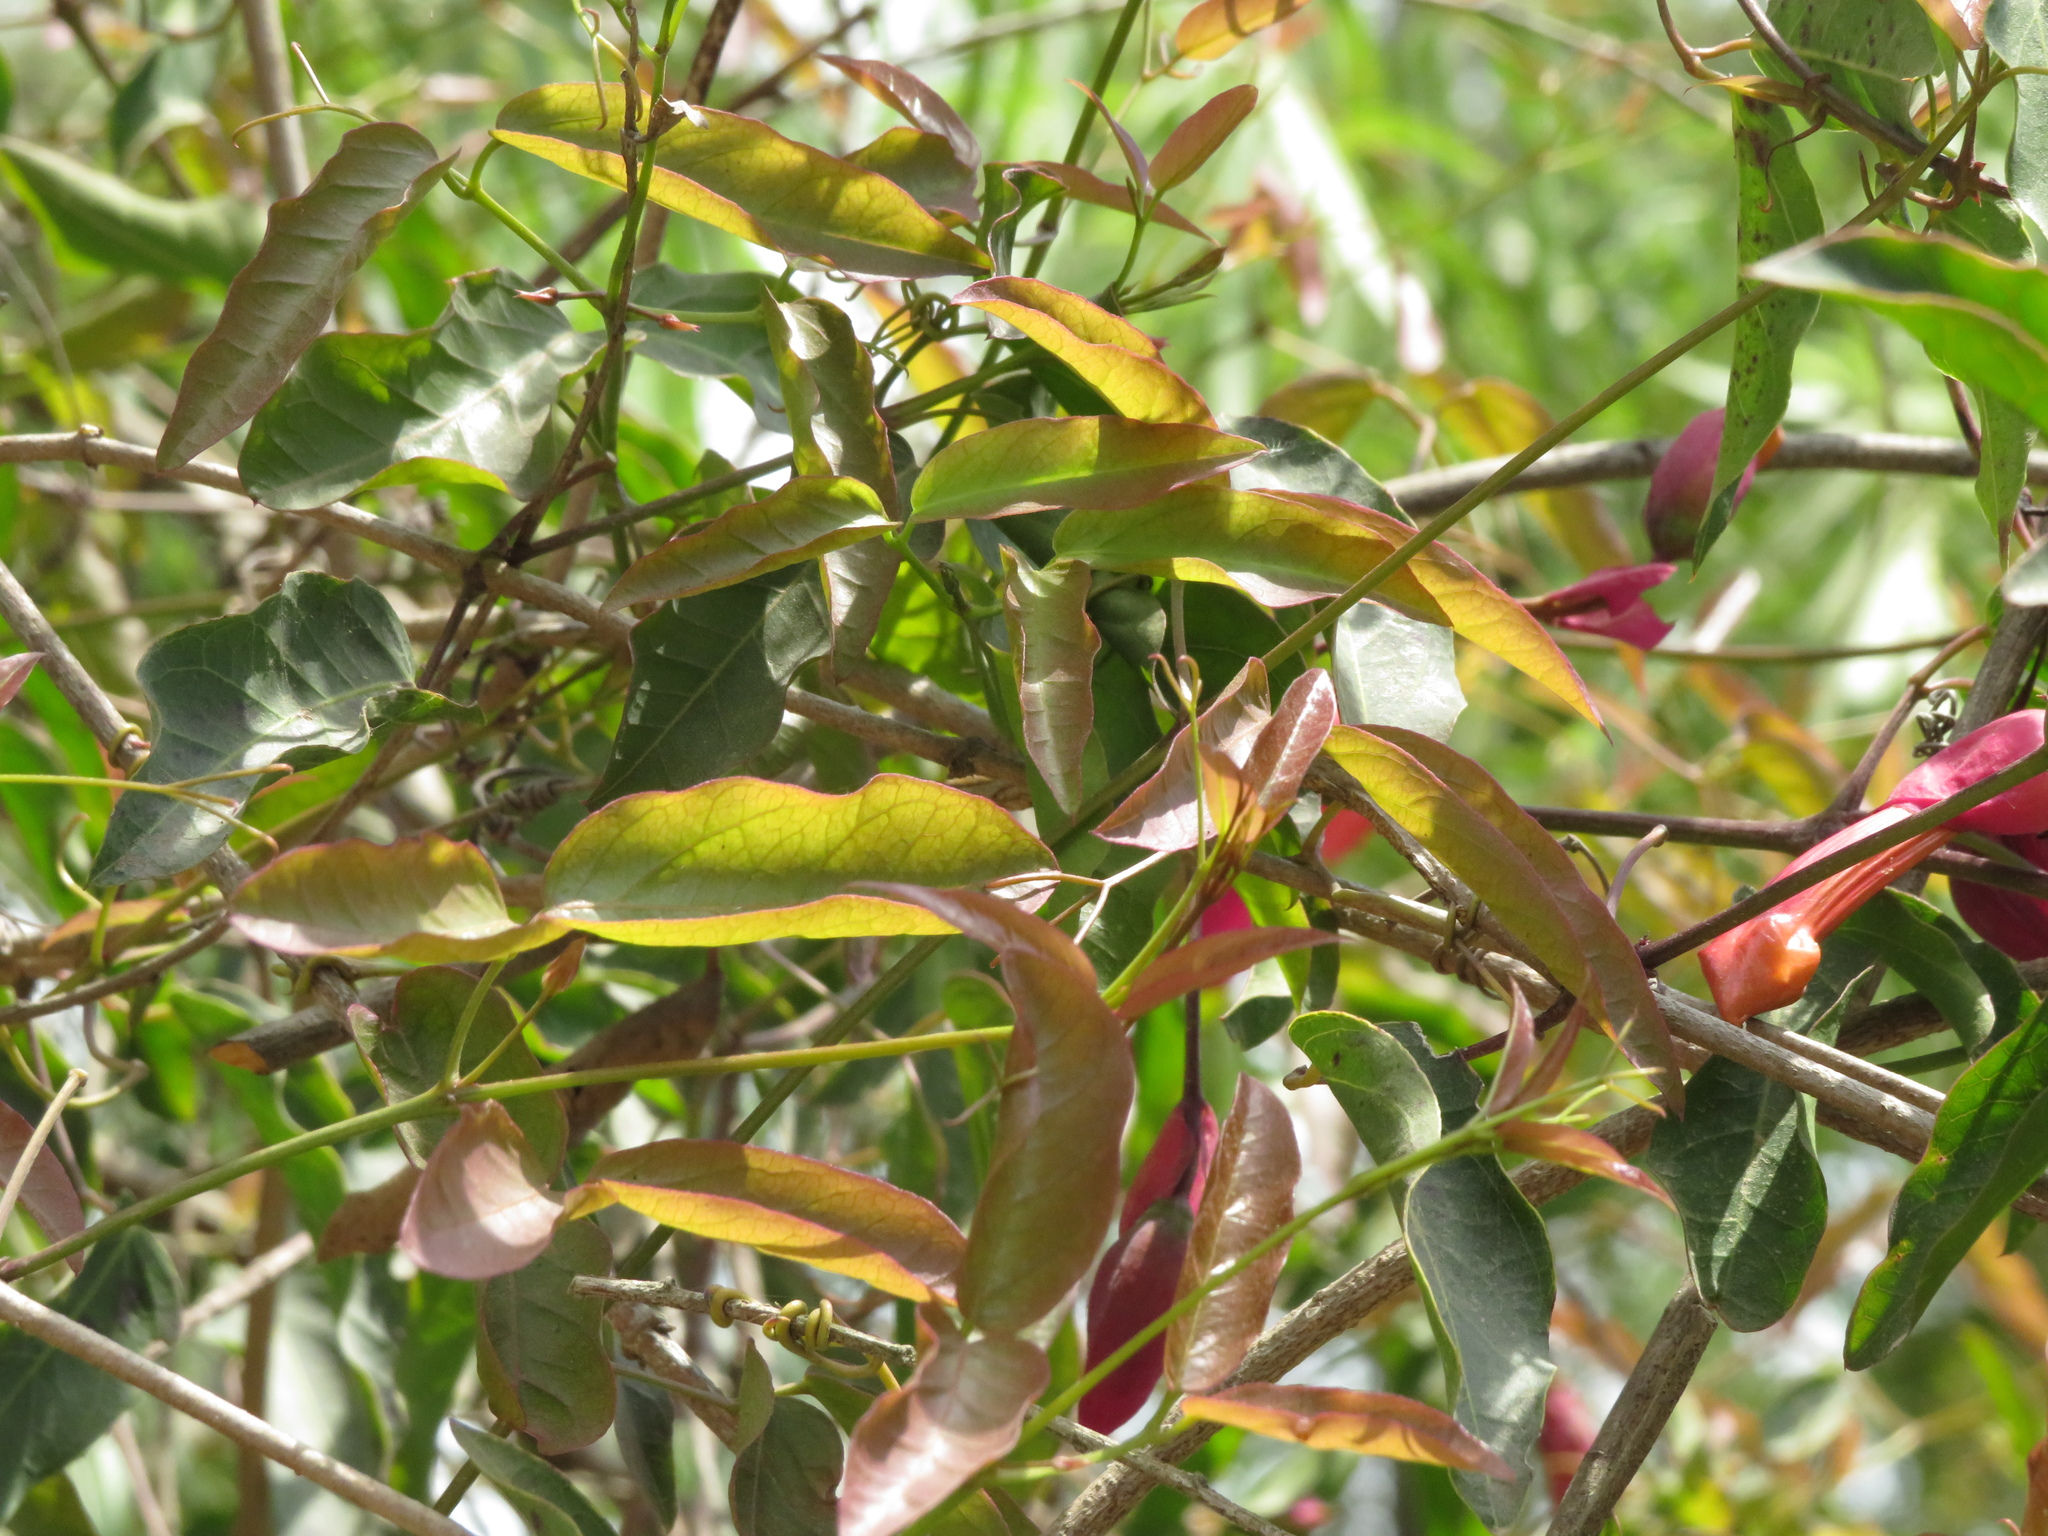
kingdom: Plantae
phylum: Tracheophyta
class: Magnoliopsida
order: Lamiales
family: Bignoniaceae
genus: Dolichandra
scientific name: Dolichandra cynanchoides
